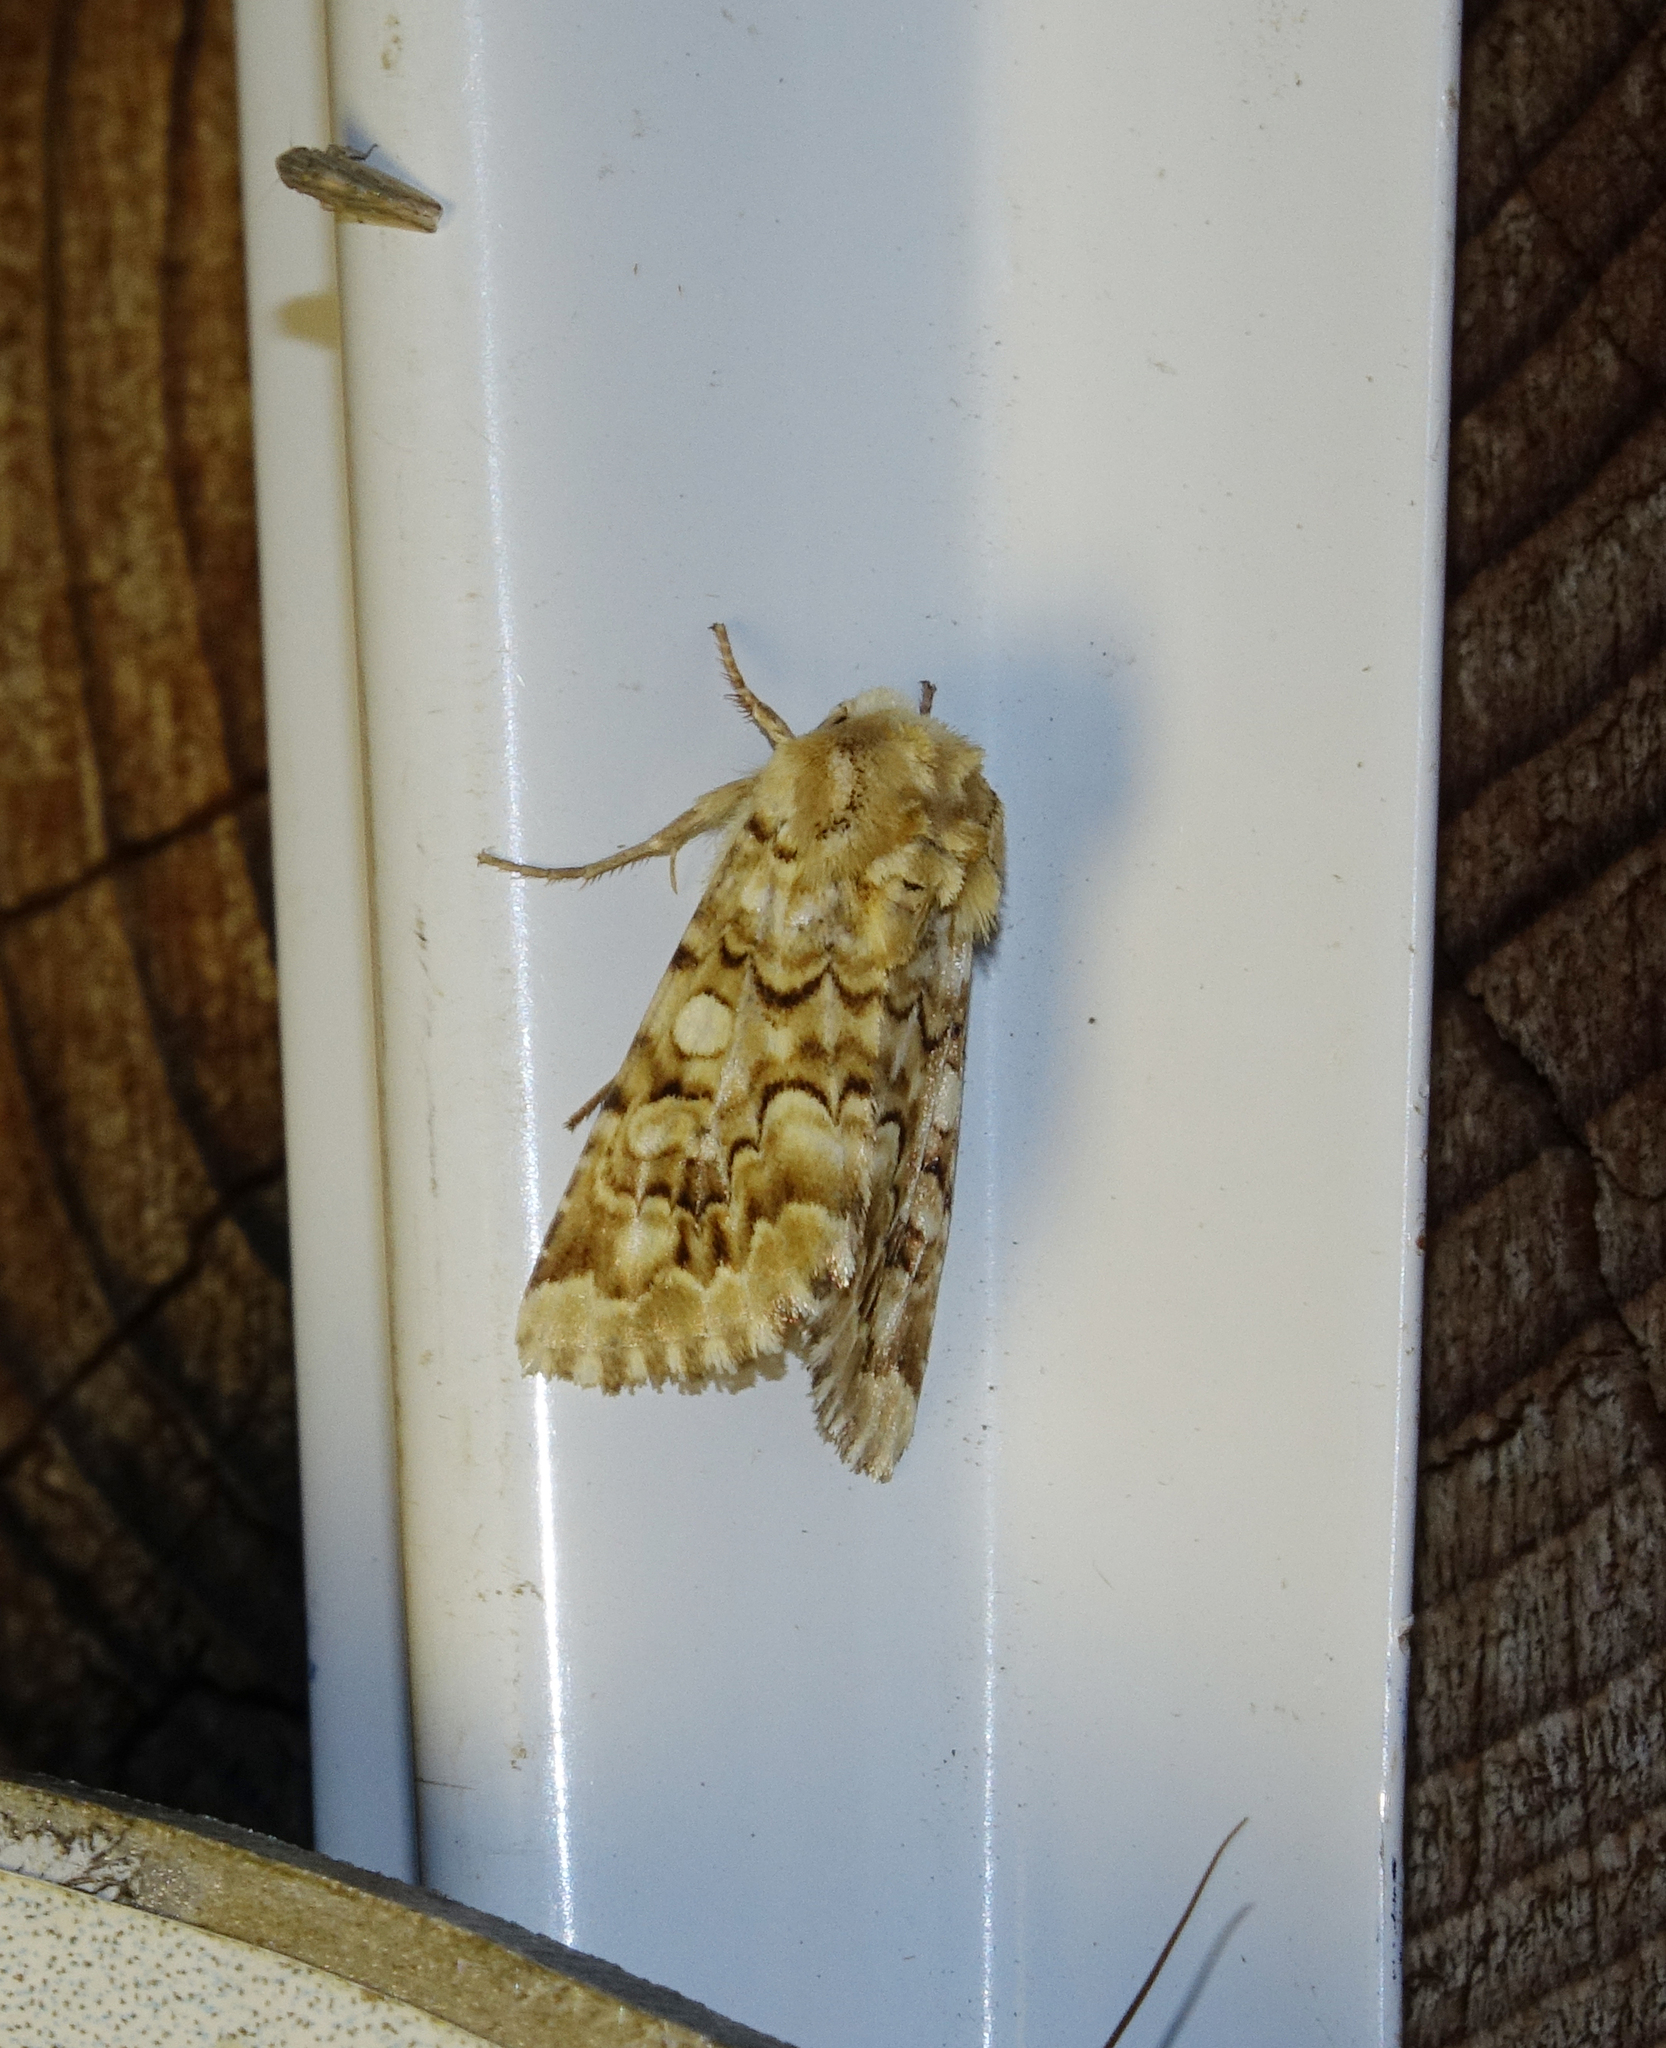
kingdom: Animalia
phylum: Arthropoda
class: Insecta
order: Lepidoptera
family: Noctuidae
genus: Hadena
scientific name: Hadena irregularis
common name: Vipers bugloss
